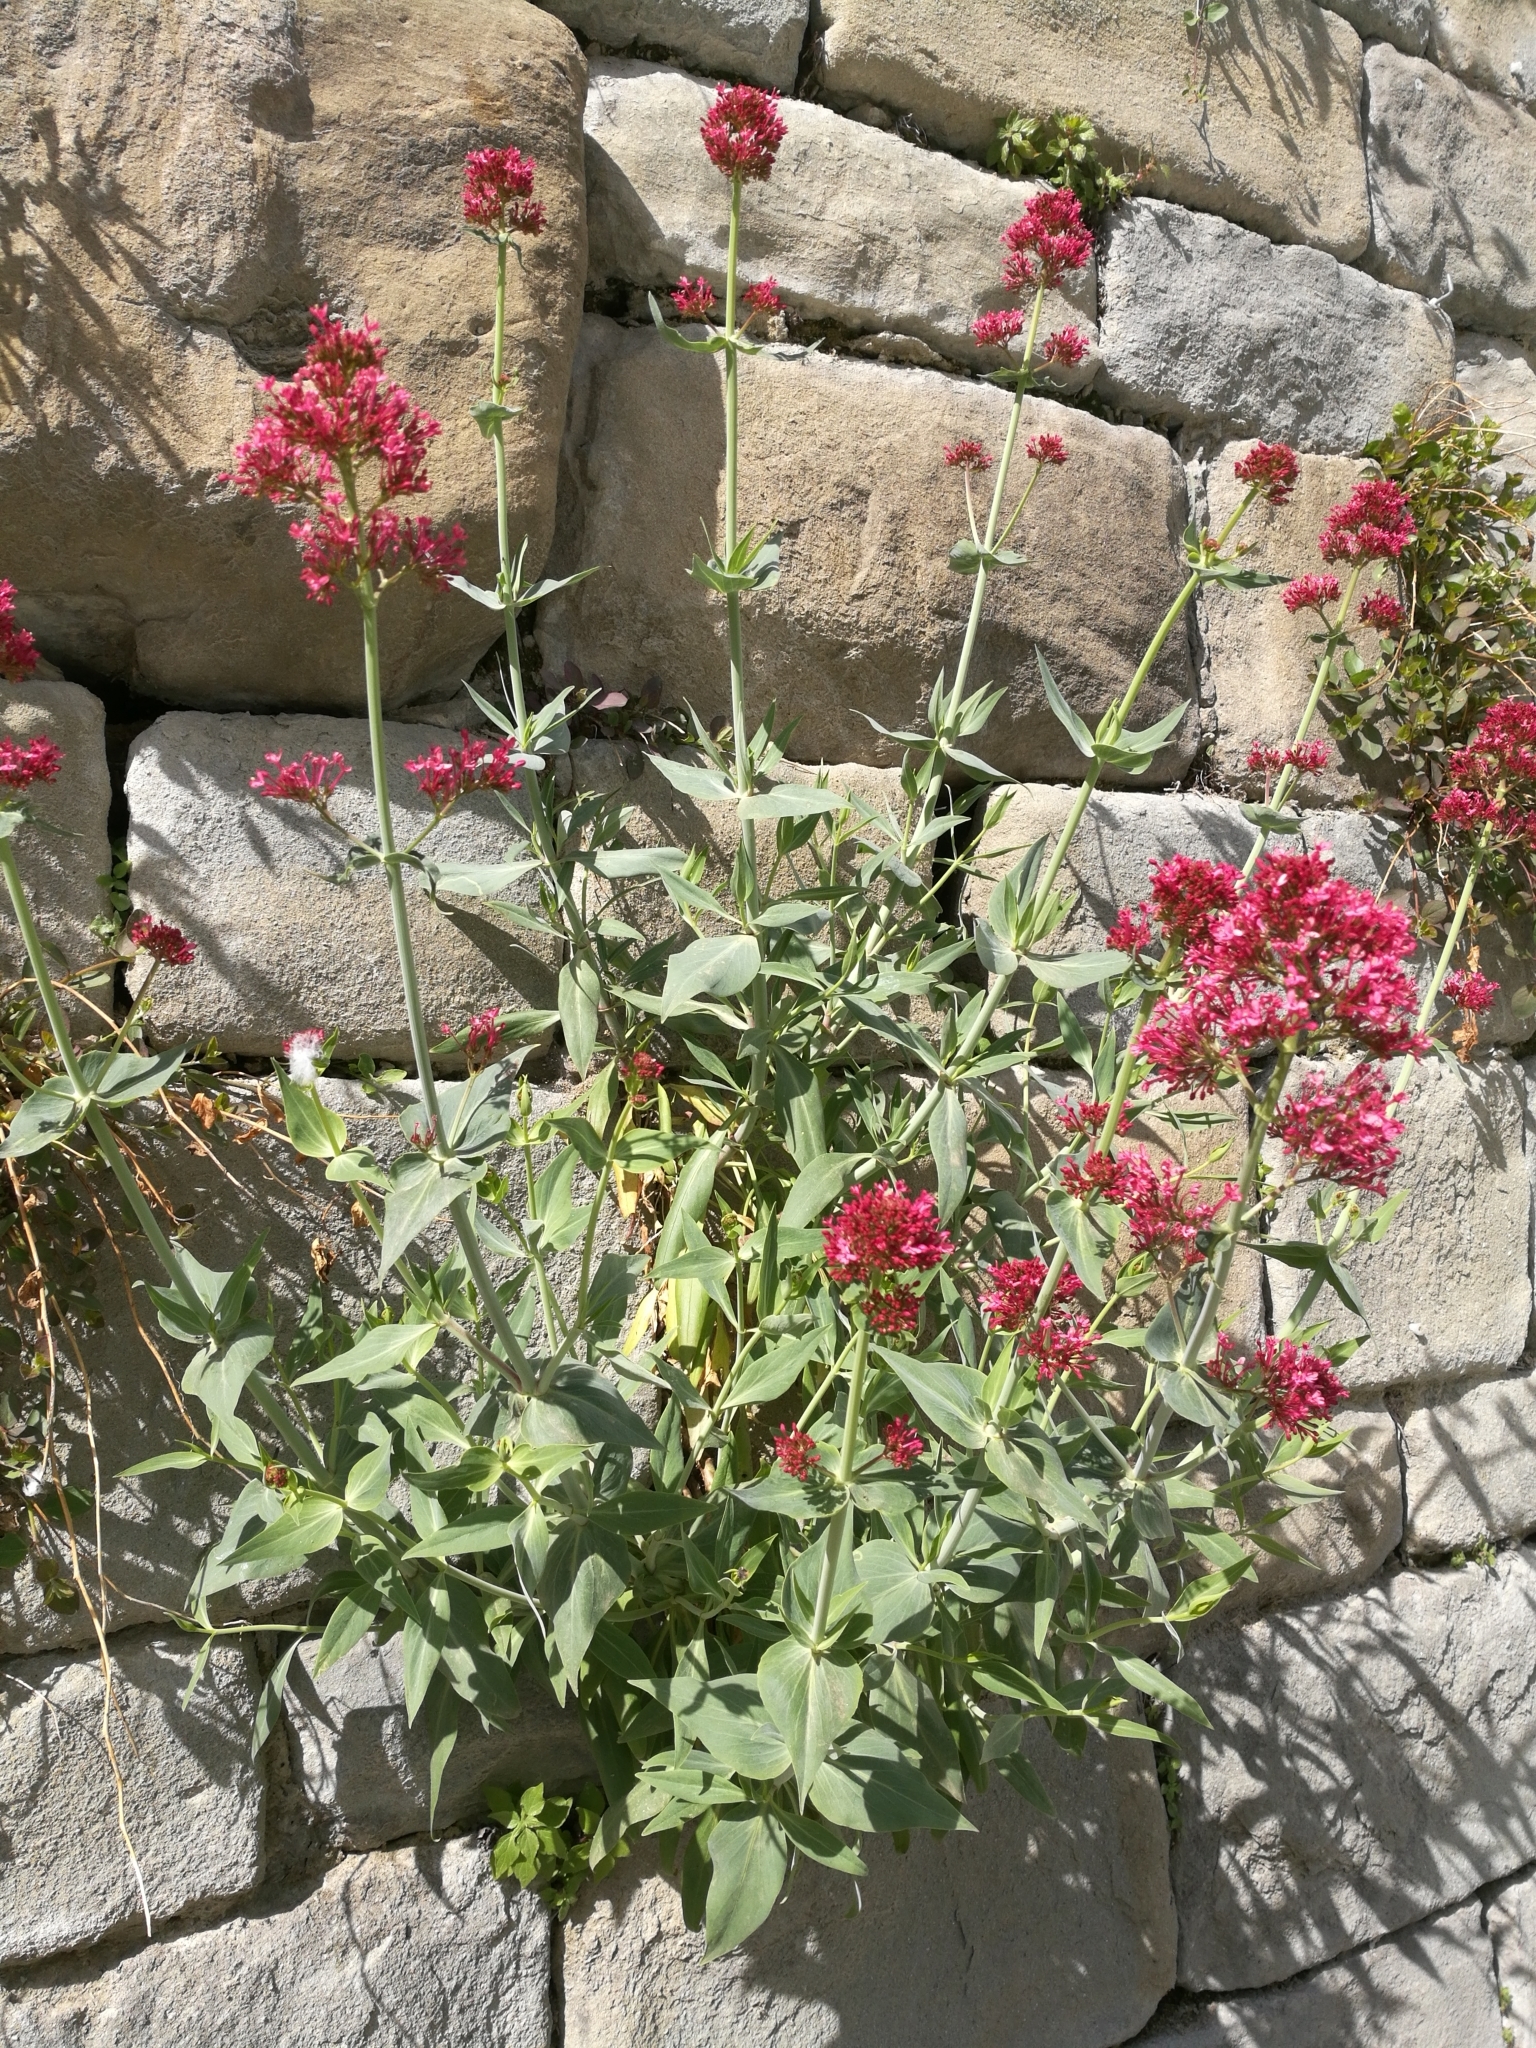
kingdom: Plantae
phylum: Tracheophyta
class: Magnoliopsida
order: Dipsacales
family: Caprifoliaceae
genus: Centranthus
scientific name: Centranthus ruber
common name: Red valerian
